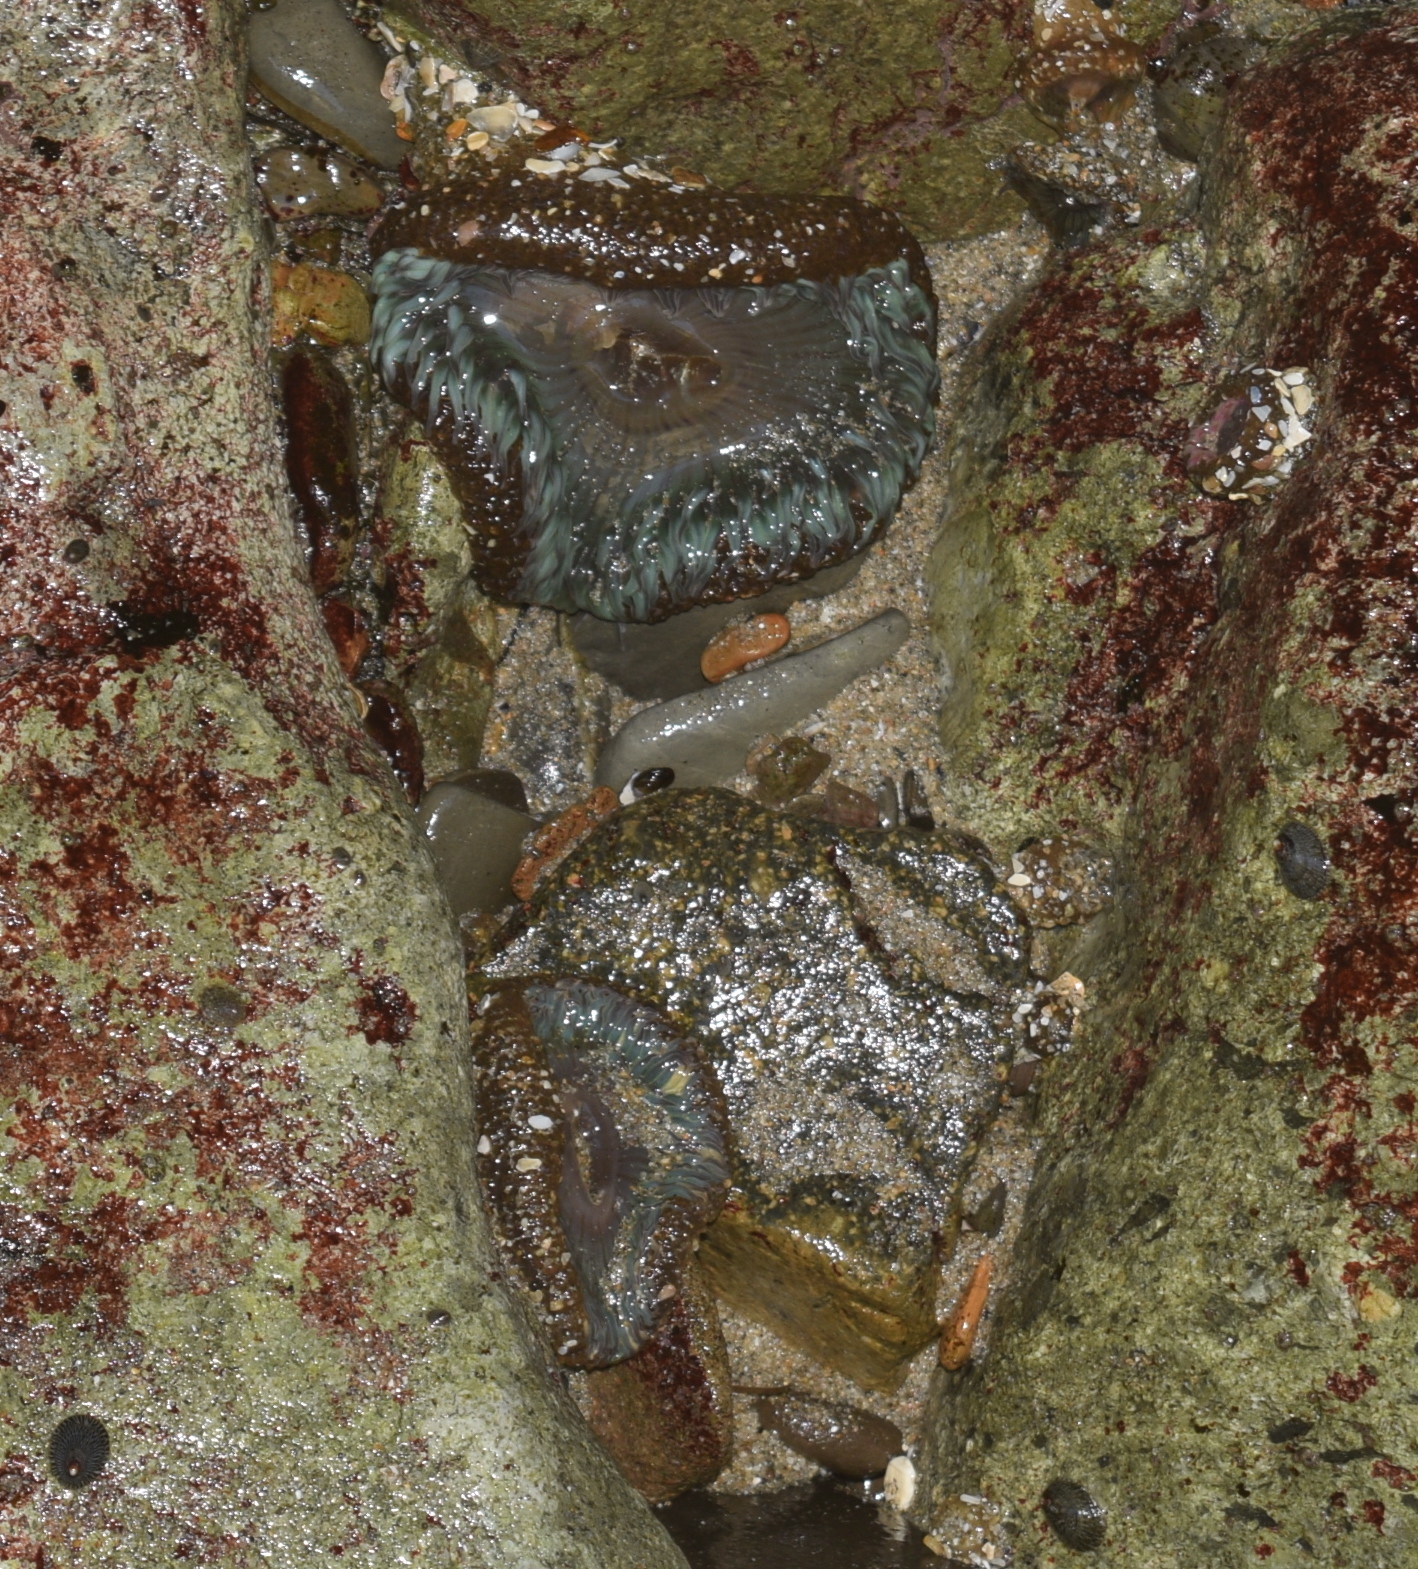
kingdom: Animalia
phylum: Cnidaria
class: Anthozoa
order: Actiniaria
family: Actiniidae
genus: Anthopleura
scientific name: Anthopleura sola
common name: Sun anemone
